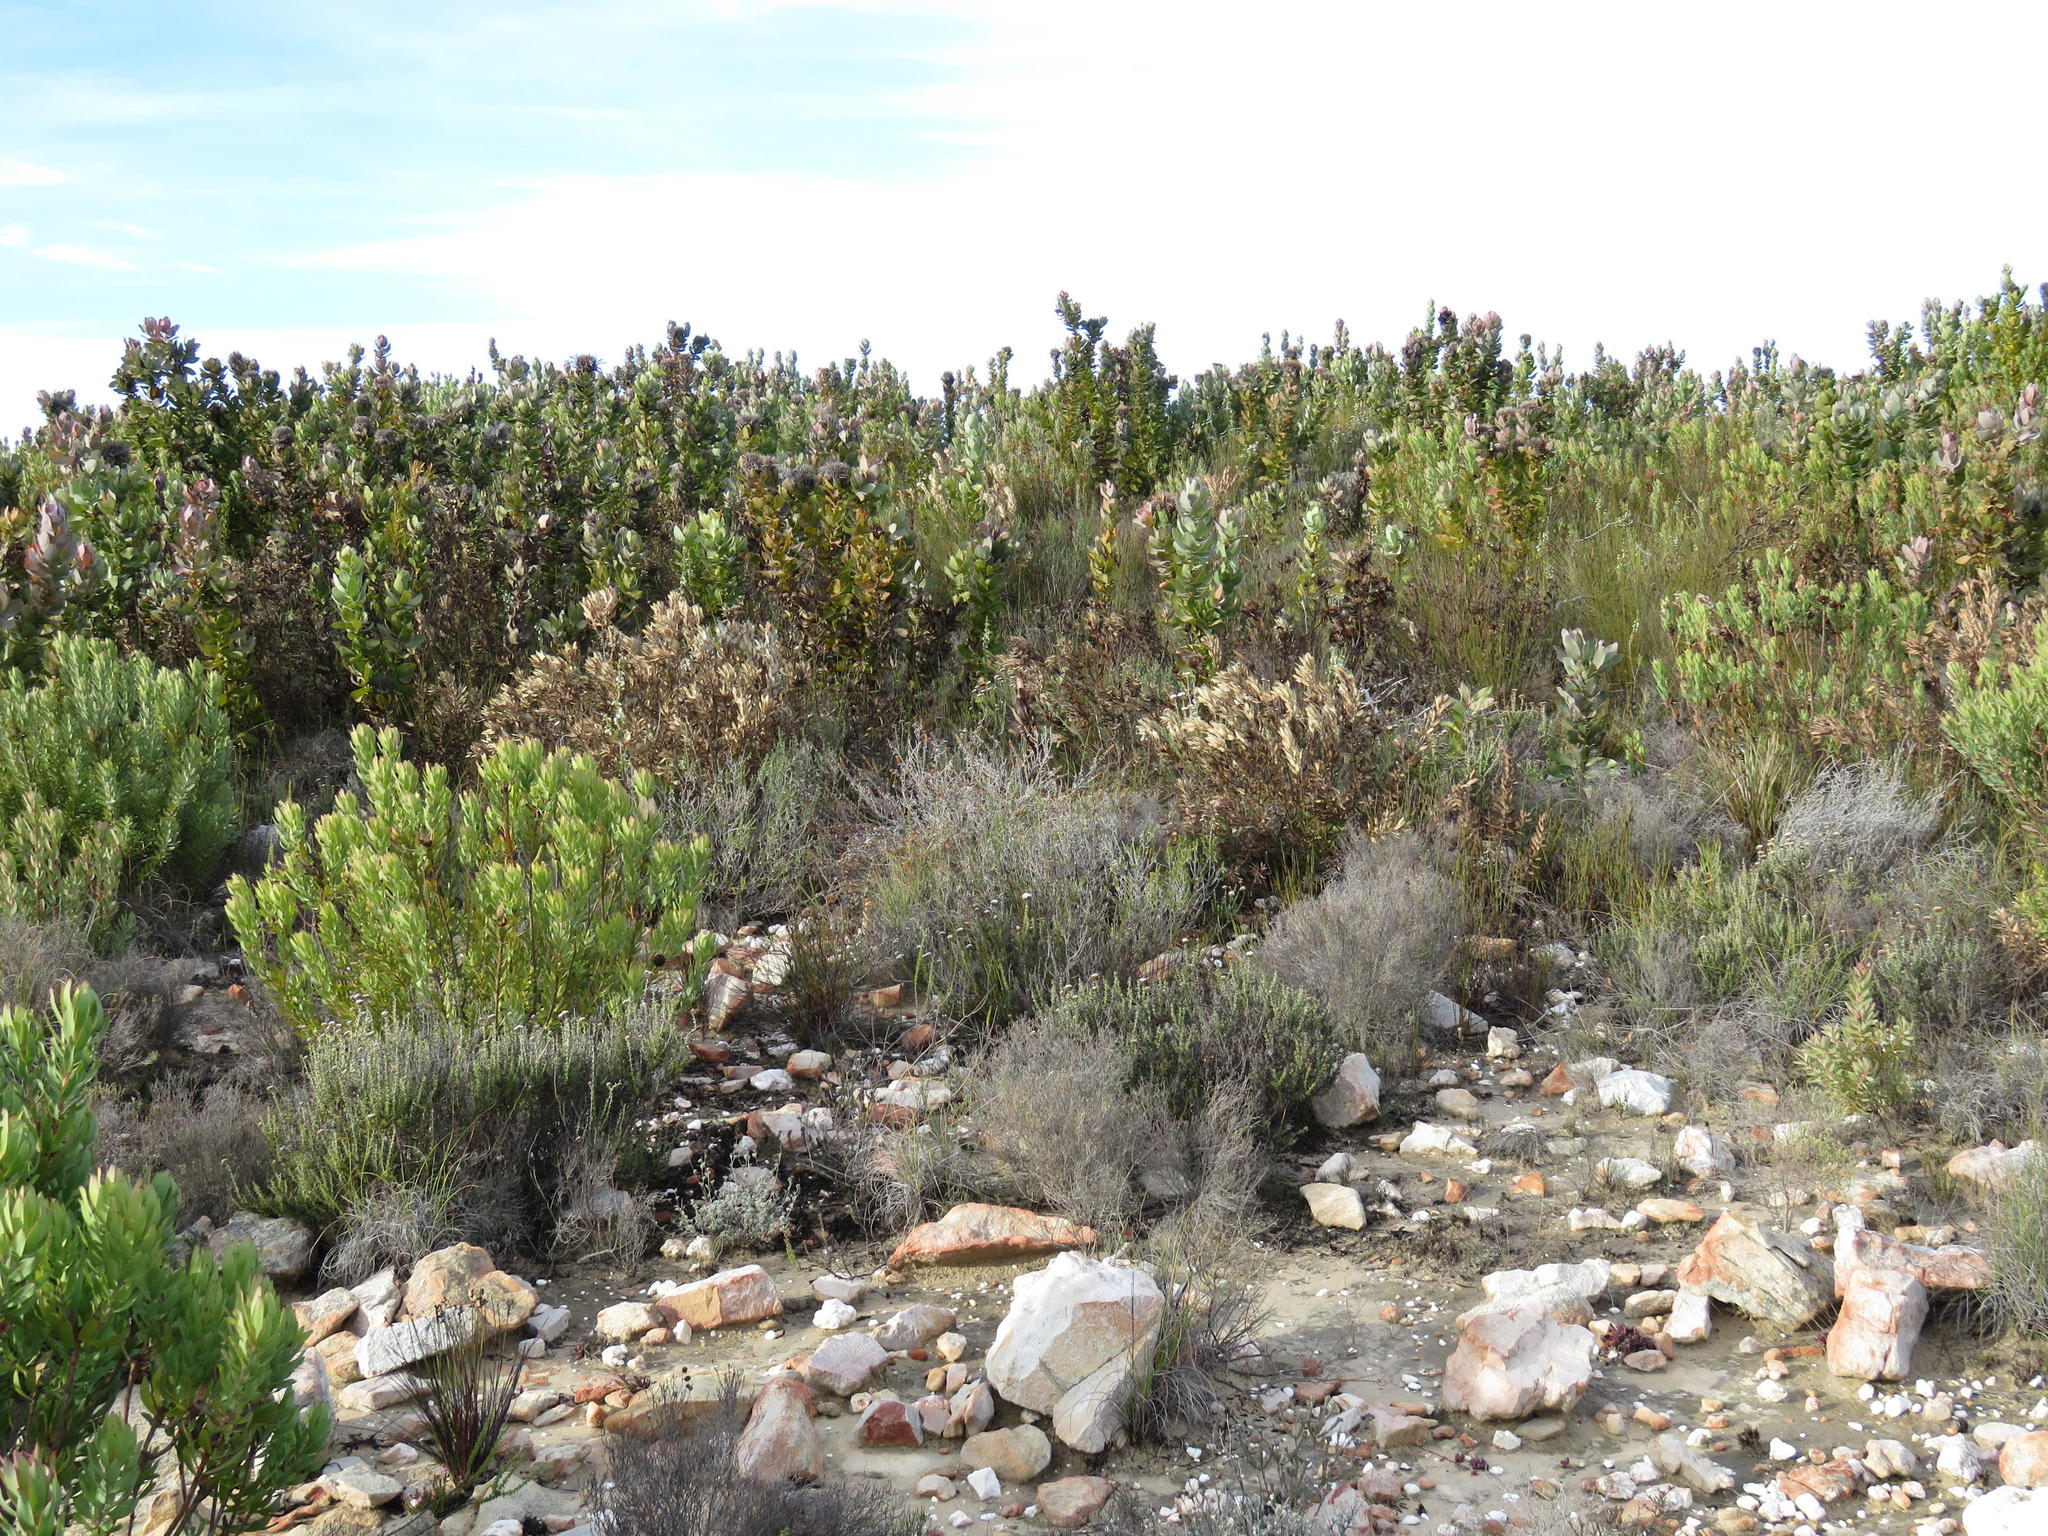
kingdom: Plantae
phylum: Tracheophyta
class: Magnoliopsida
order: Proteales
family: Proteaceae
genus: Leucadendron
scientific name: Leucadendron barkerae
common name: Swartberg conebush
